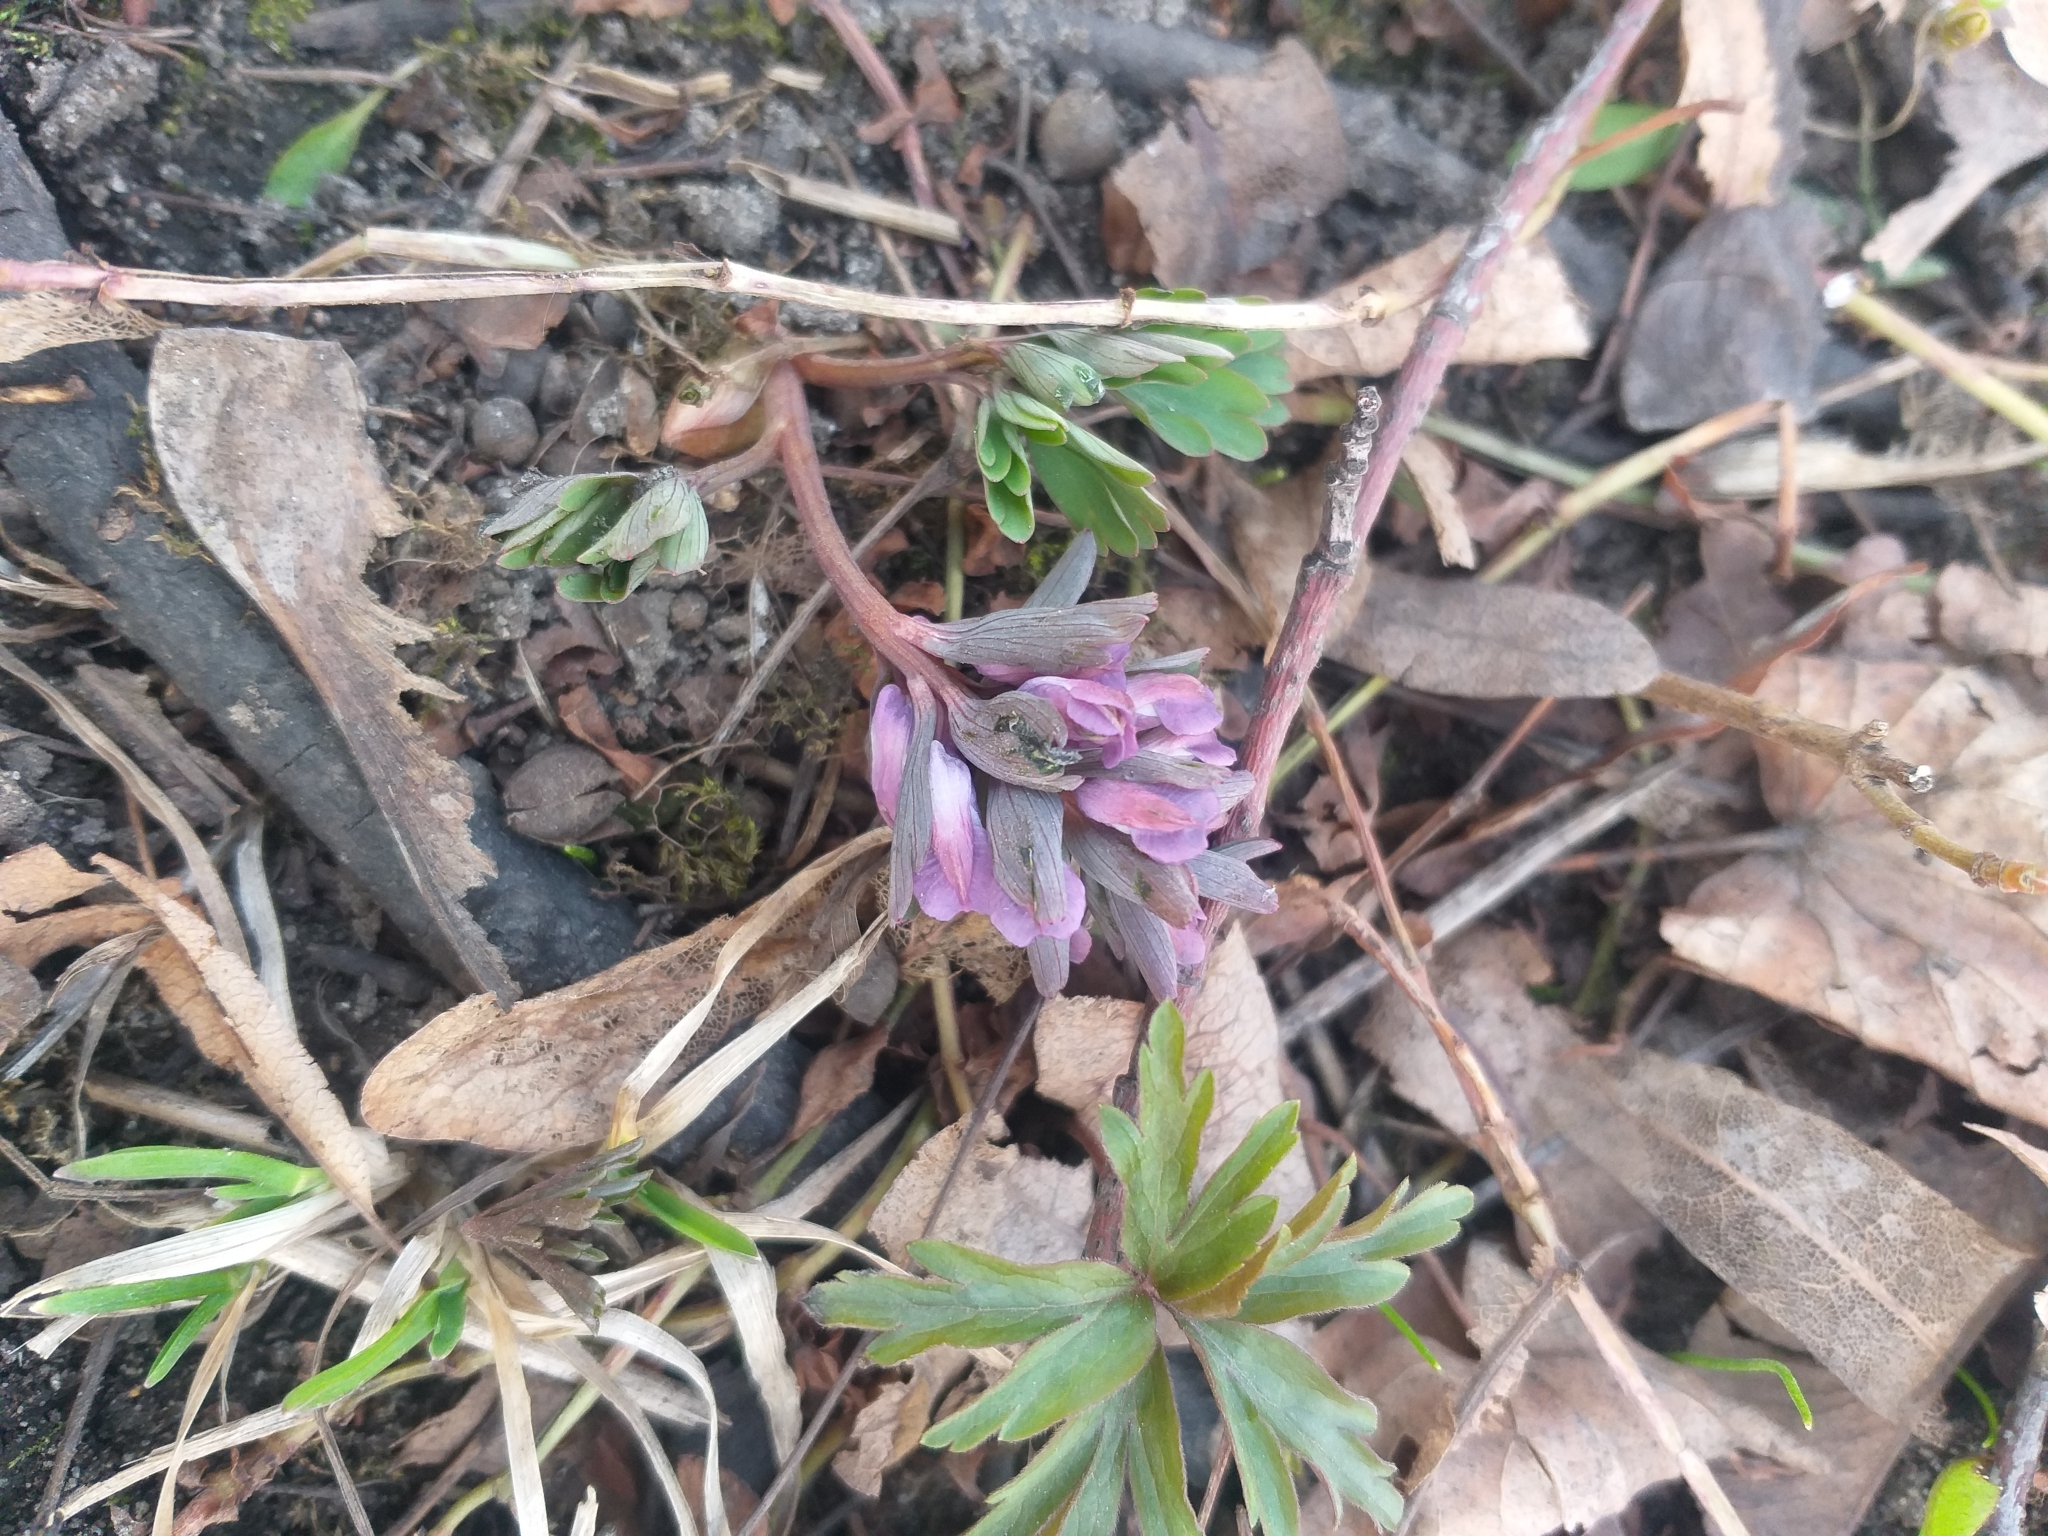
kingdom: Plantae
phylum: Tracheophyta
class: Magnoliopsida
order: Ranunculales
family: Papaveraceae
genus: Corydalis
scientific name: Corydalis solida
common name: Bird-in-a-bush
